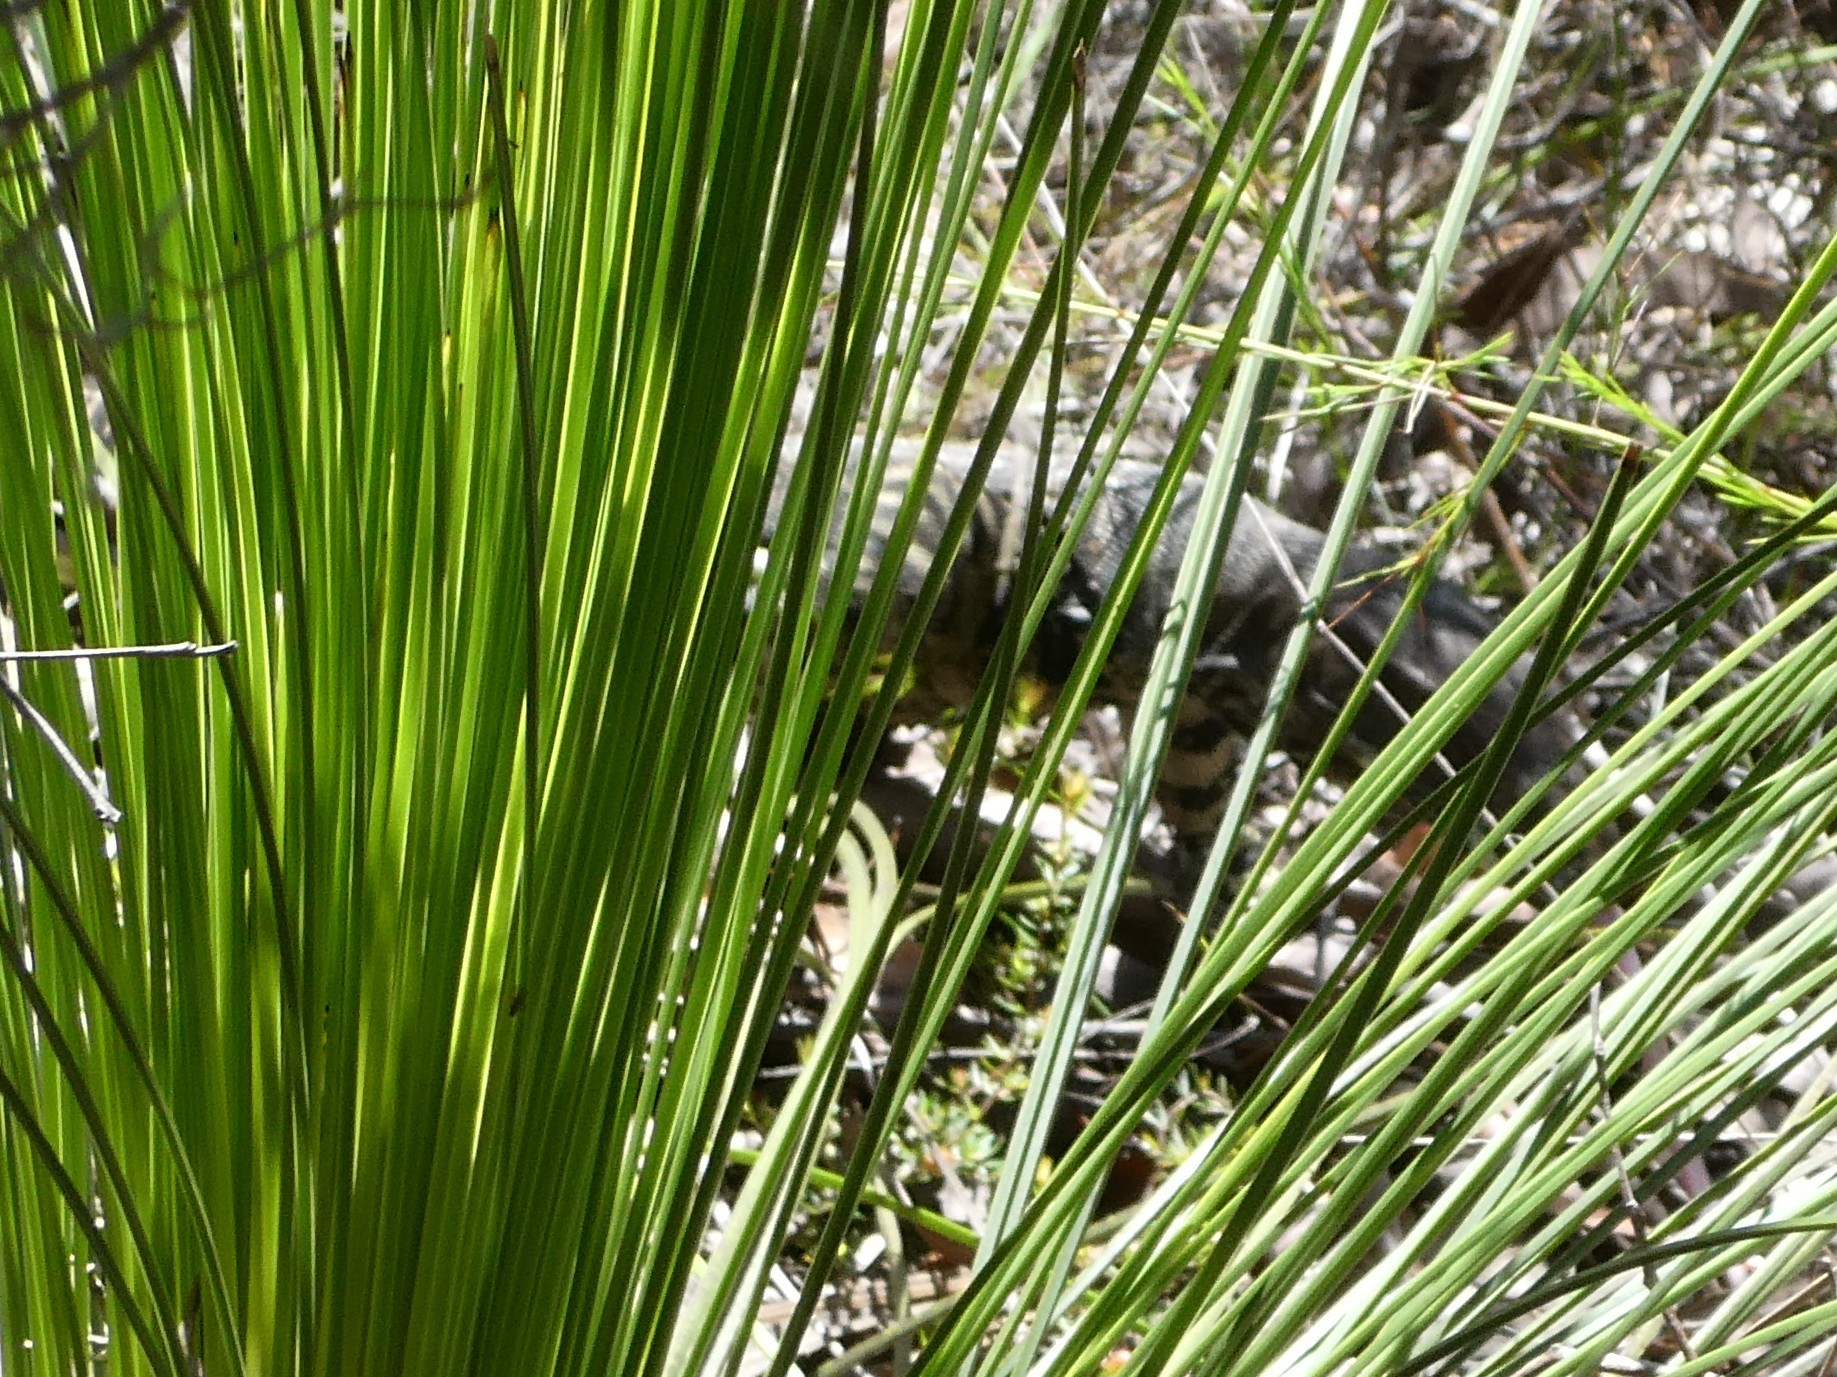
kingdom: Animalia
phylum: Chordata
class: Squamata
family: Varanidae
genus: Varanus
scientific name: Varanus varius
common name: Lace monitor
